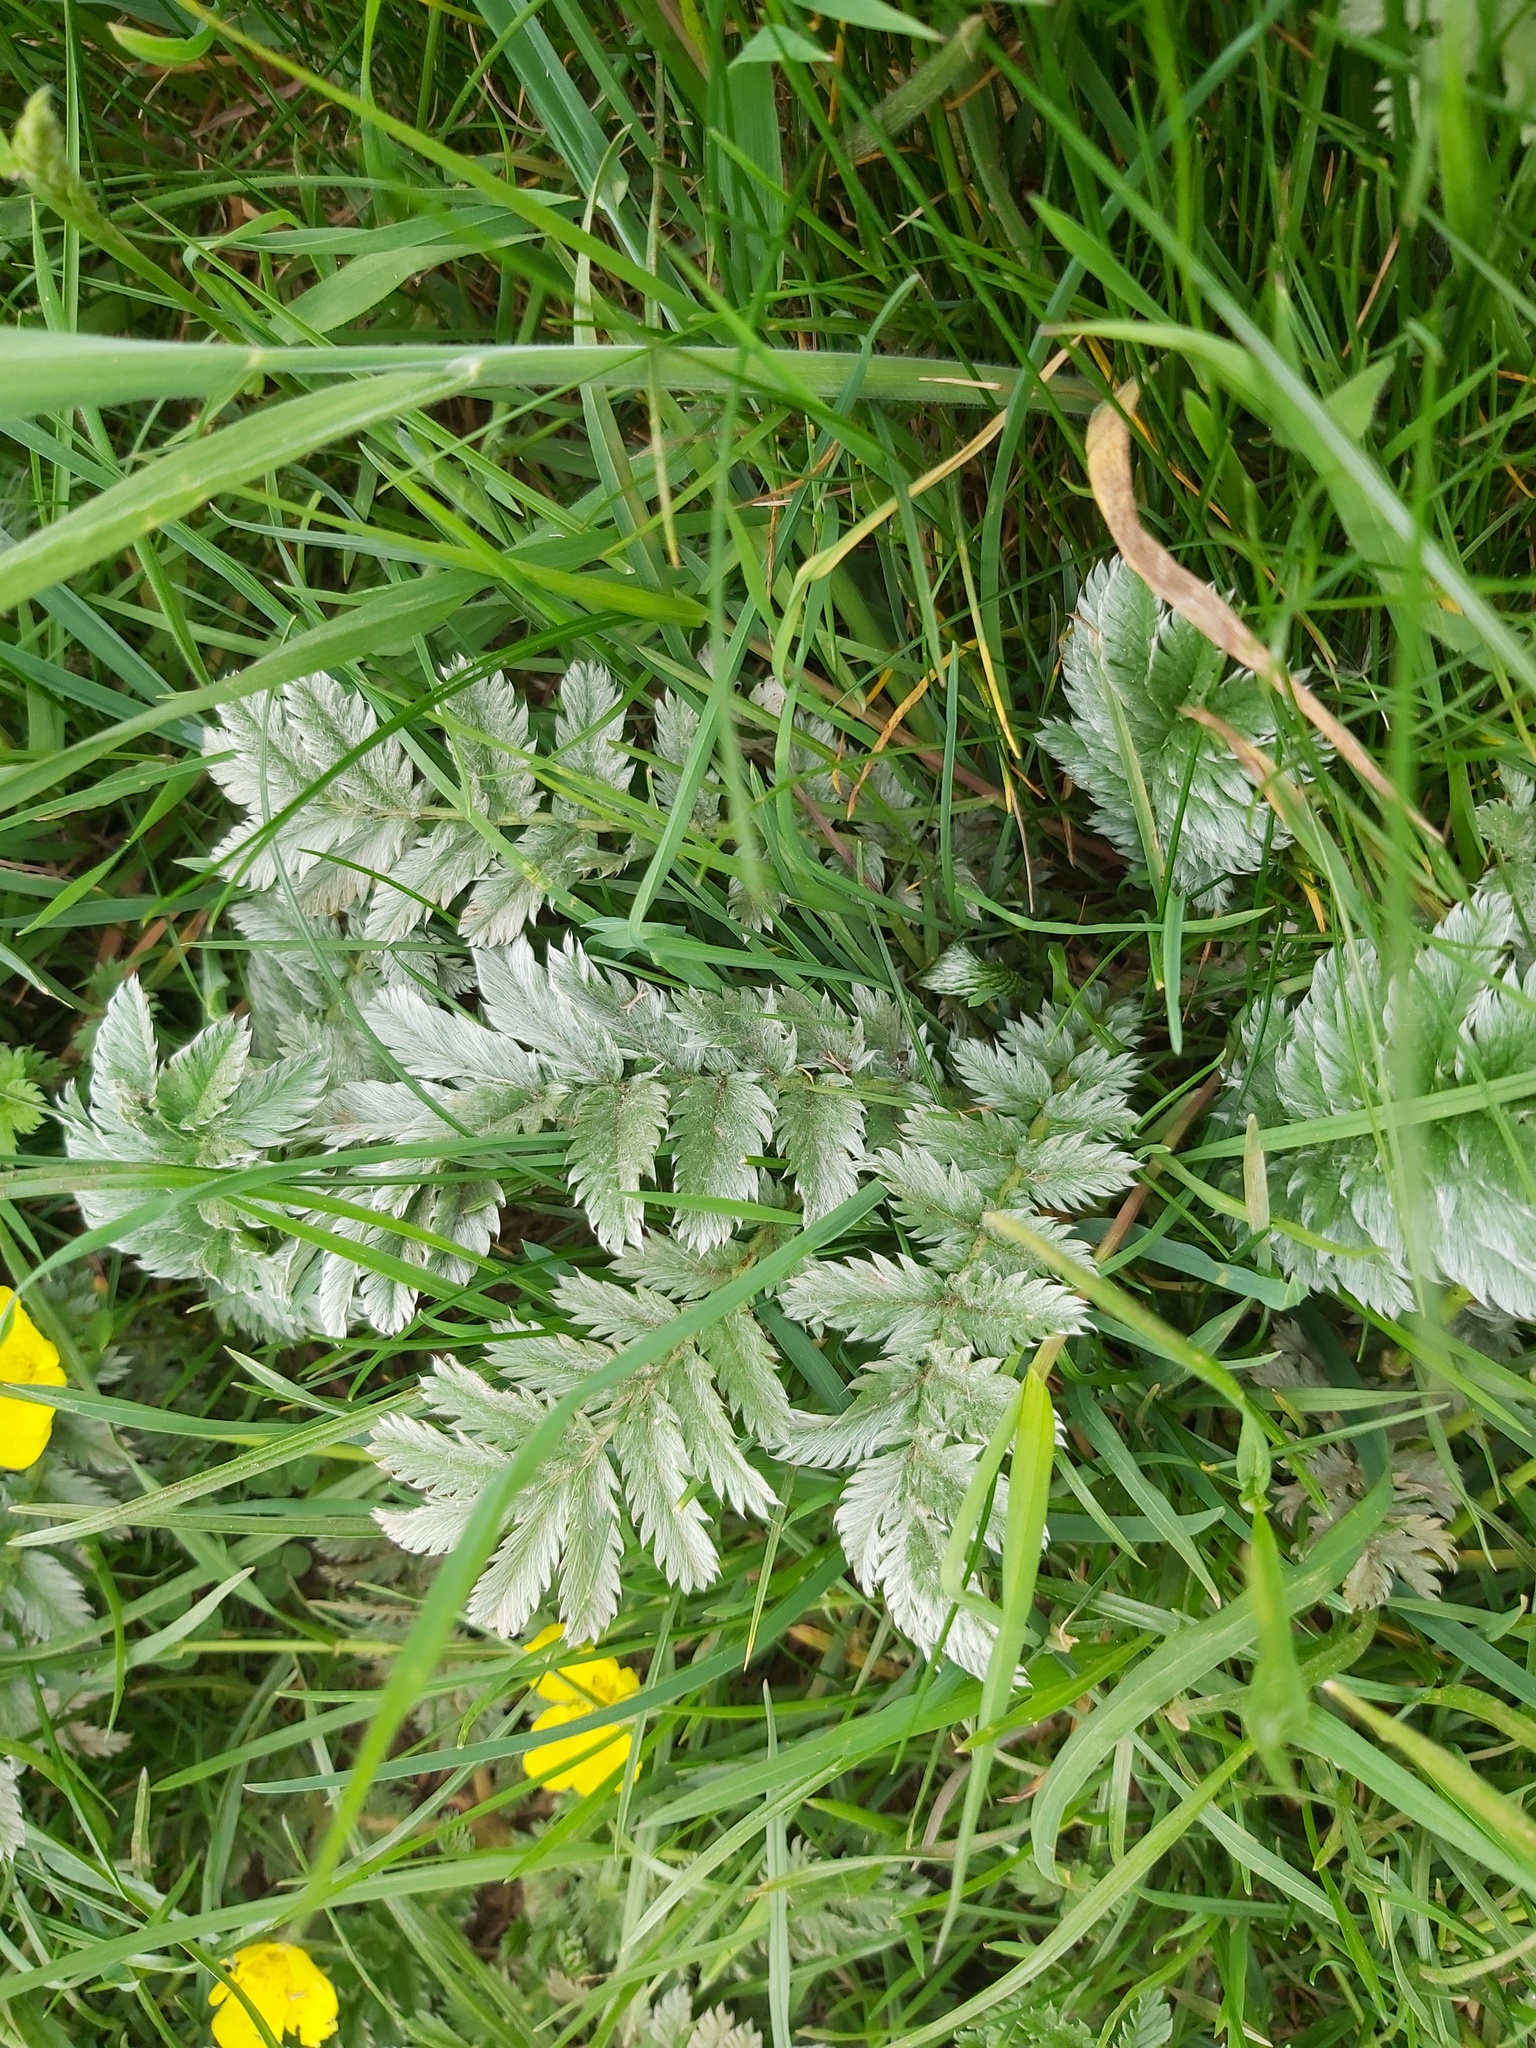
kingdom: Plantae
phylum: Tracheophyta
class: Magnoliopsida
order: Rosales
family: Rosaceae
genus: Argentina
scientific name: Argentina anserina
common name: Common silverweed
